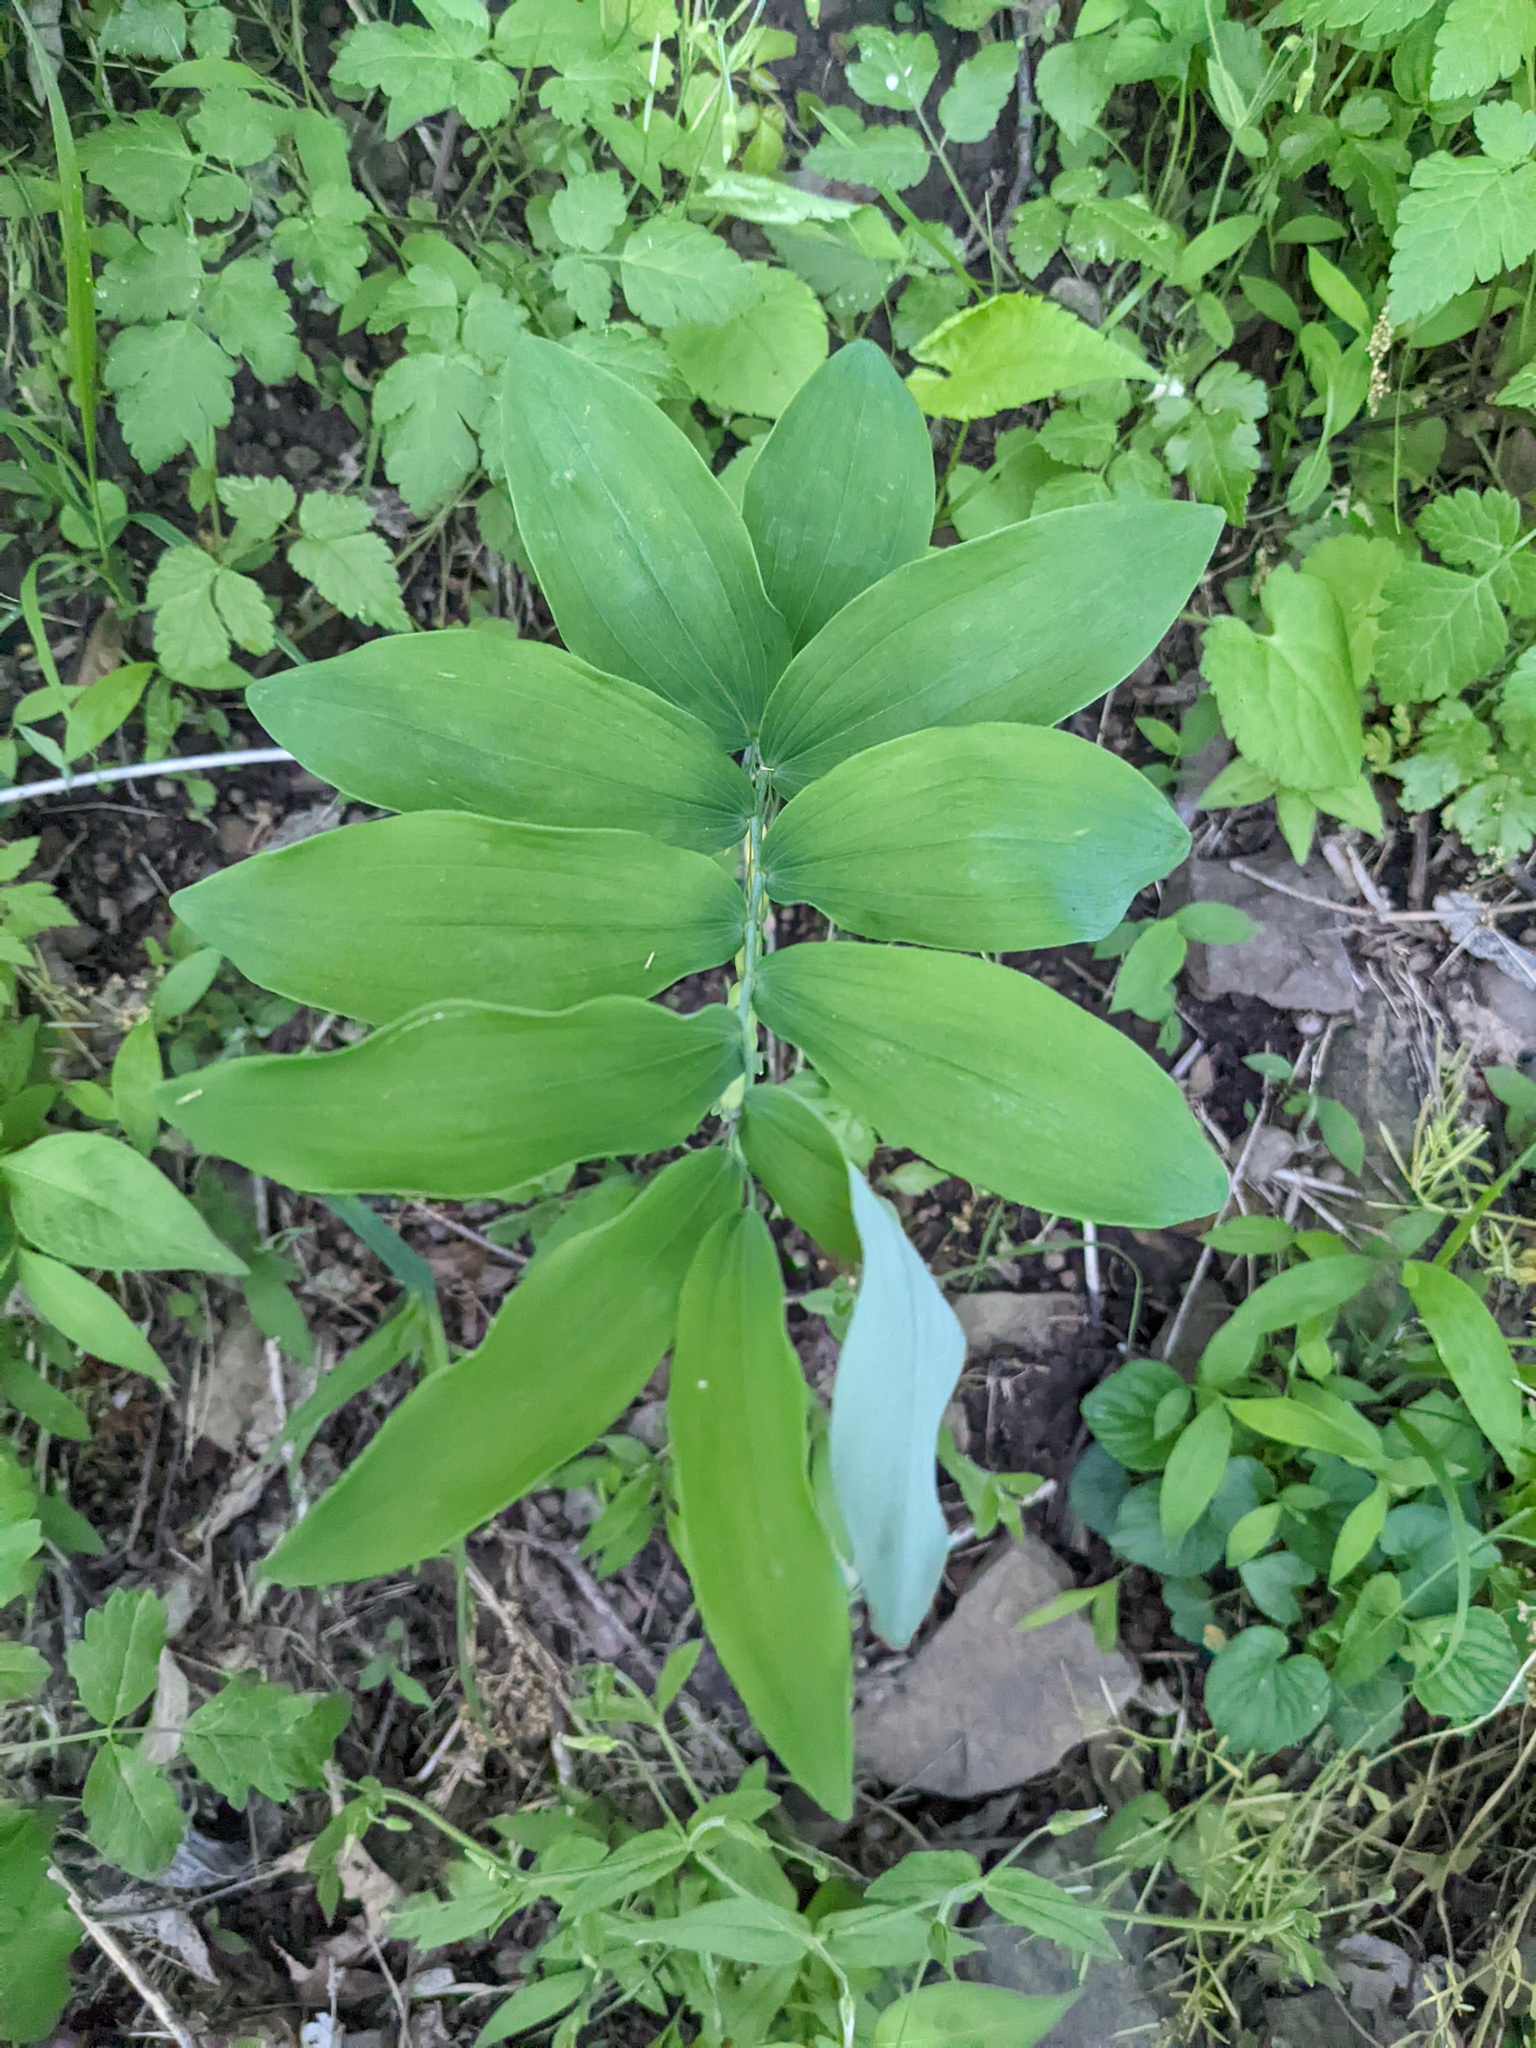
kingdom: Plantae
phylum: Tracheophyta
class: Liliopsida
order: Asparagales
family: Asparagaceae
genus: Polygonatum
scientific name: Polygonatum pubescens
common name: Downy solomon's seal
